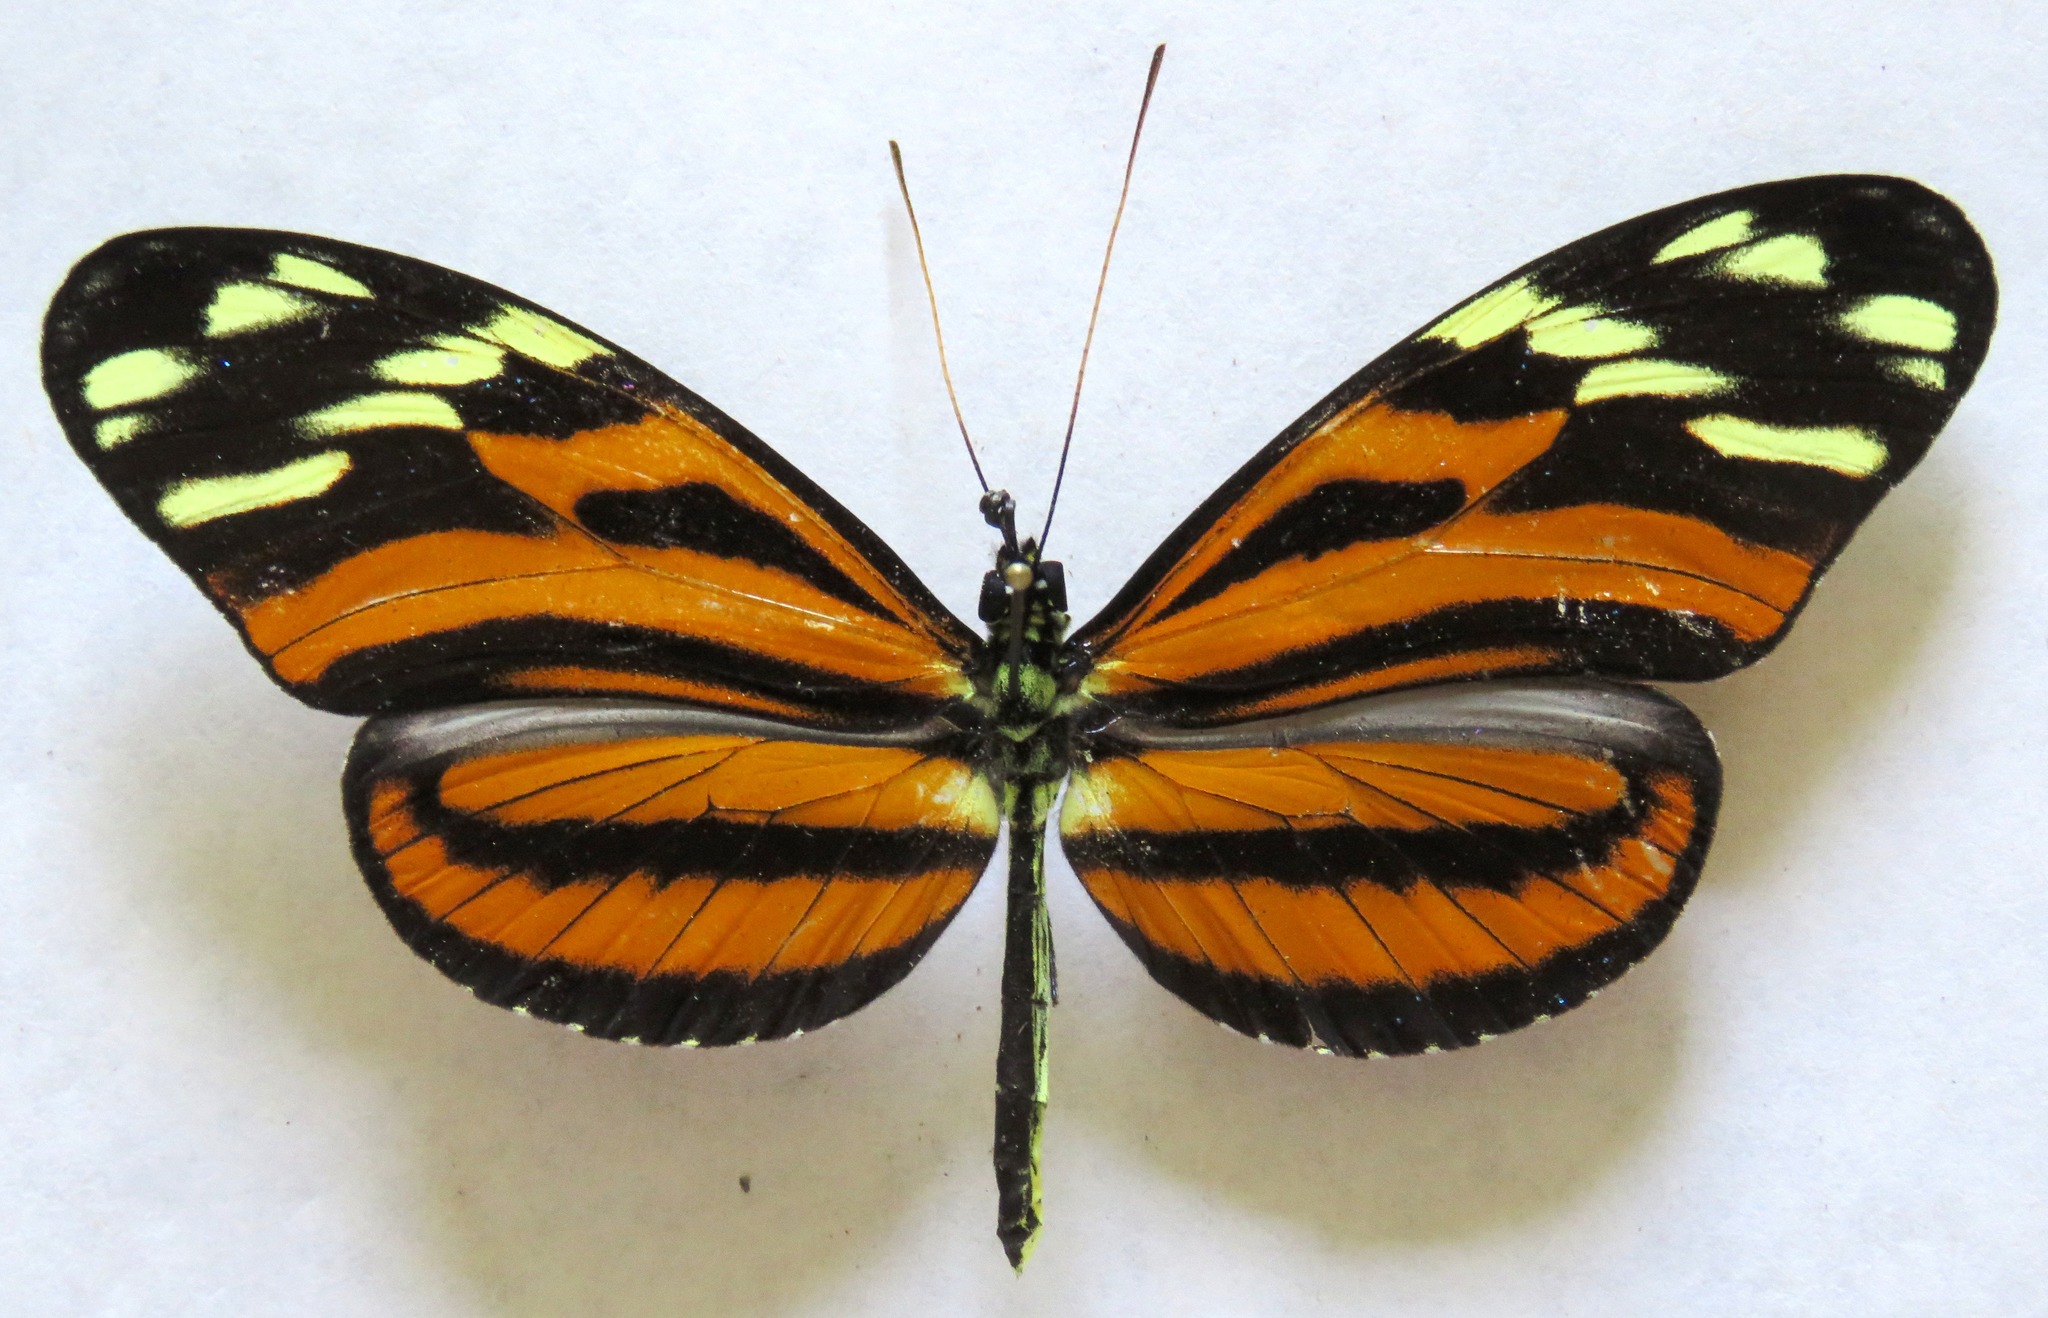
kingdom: Animalia
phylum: Arthropoda
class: Insecta
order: Lepidoptera
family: Nymphalidae
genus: Heliconius
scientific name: Heliconius ismenius
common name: Ismenius tiger
